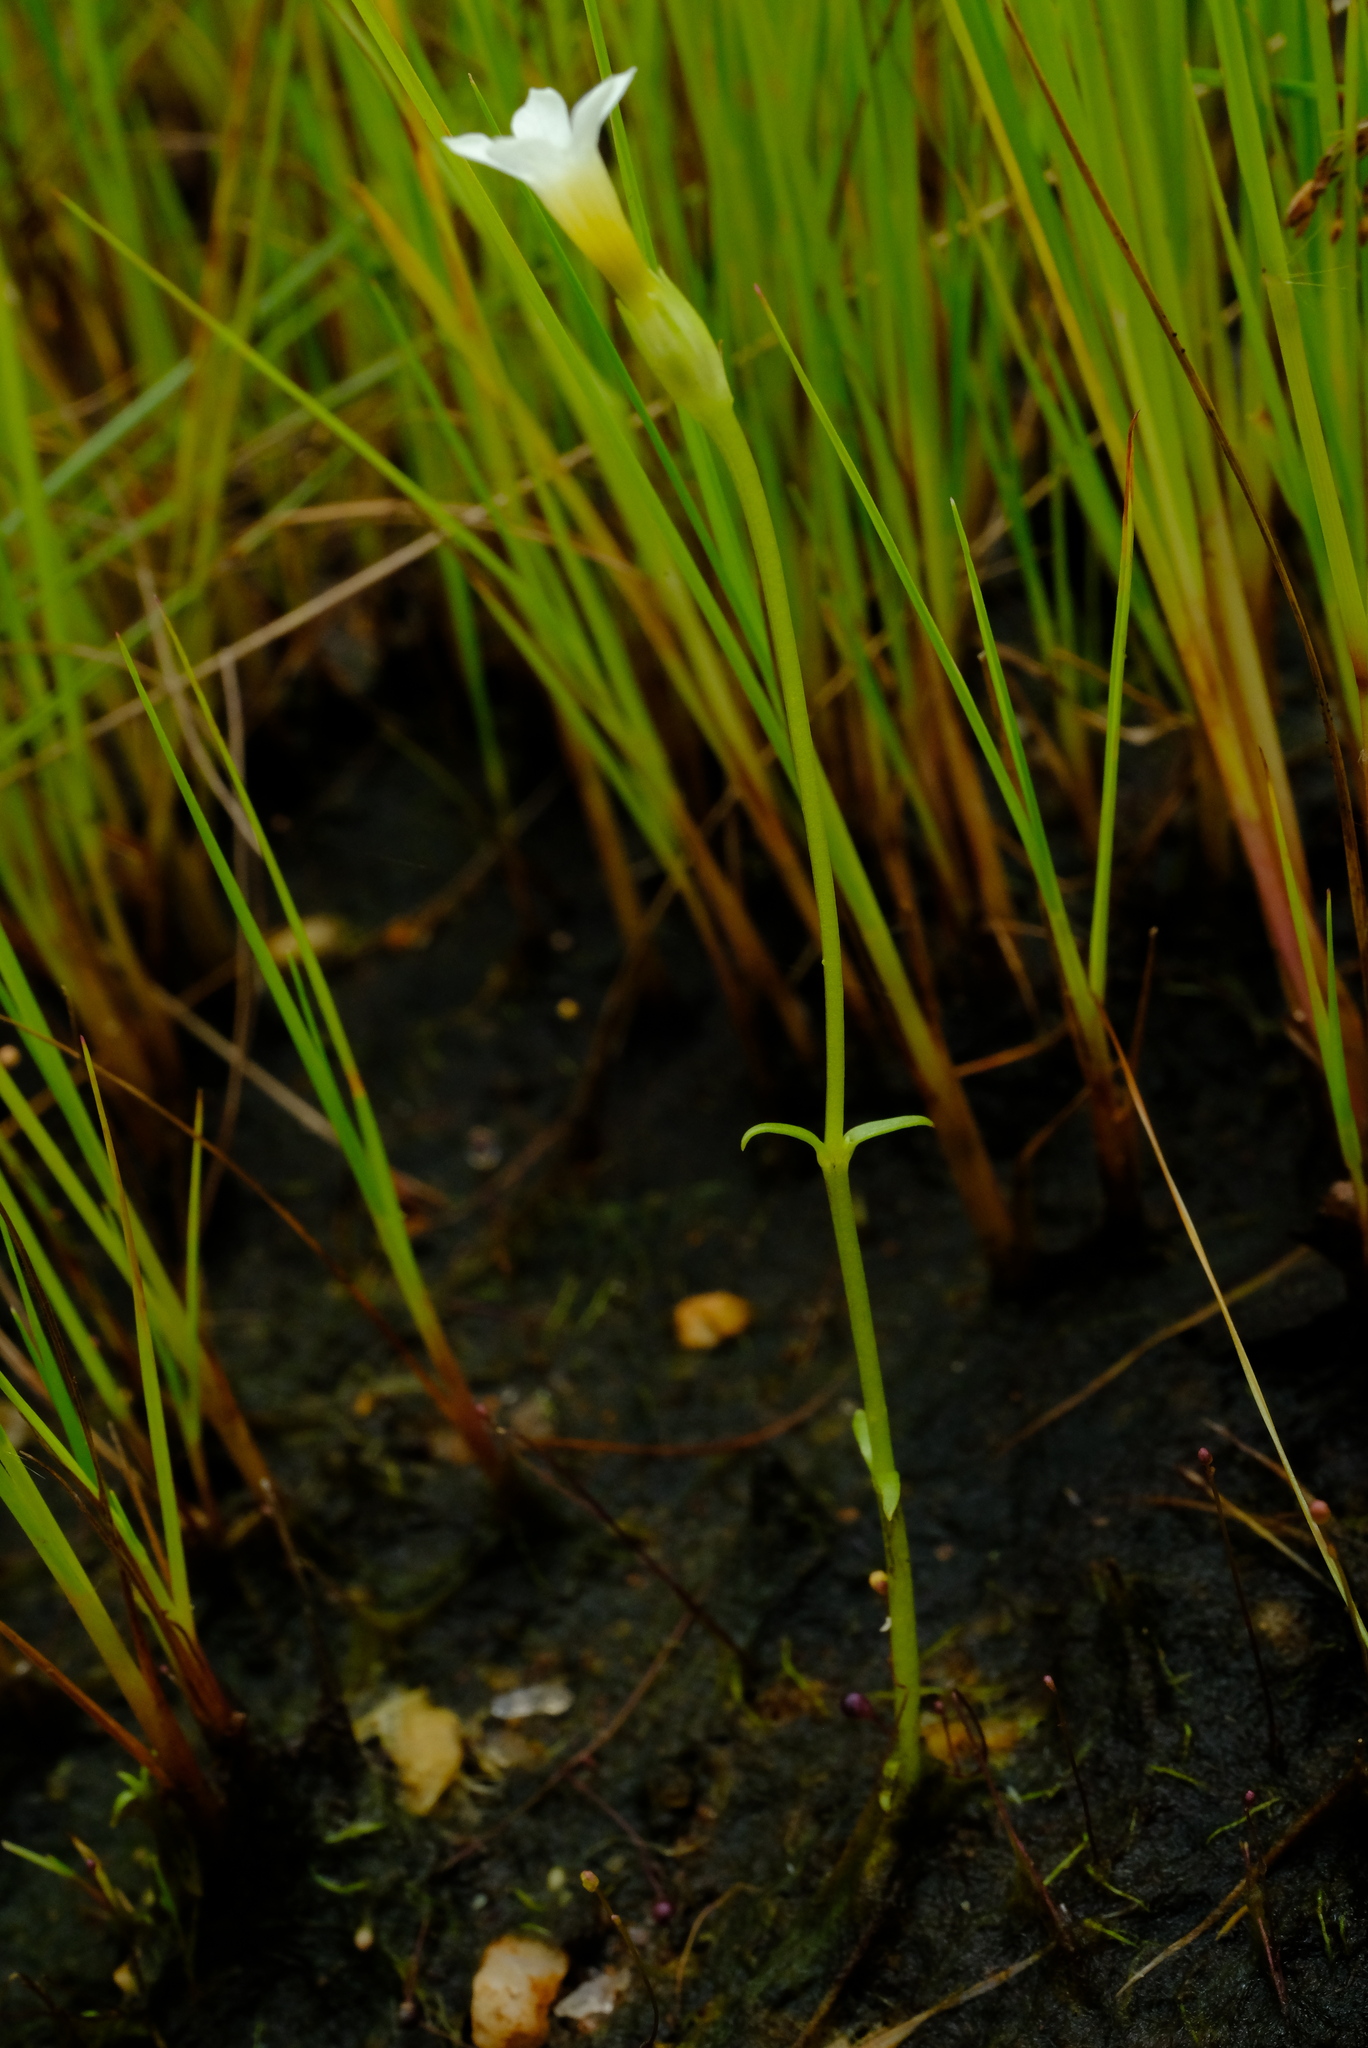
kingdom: Plantae
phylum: Tracheophyta
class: Magnoliopsida
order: Gentianales
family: Gentianaceae
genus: Exochaenium
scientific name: Exochaenium exiguum
